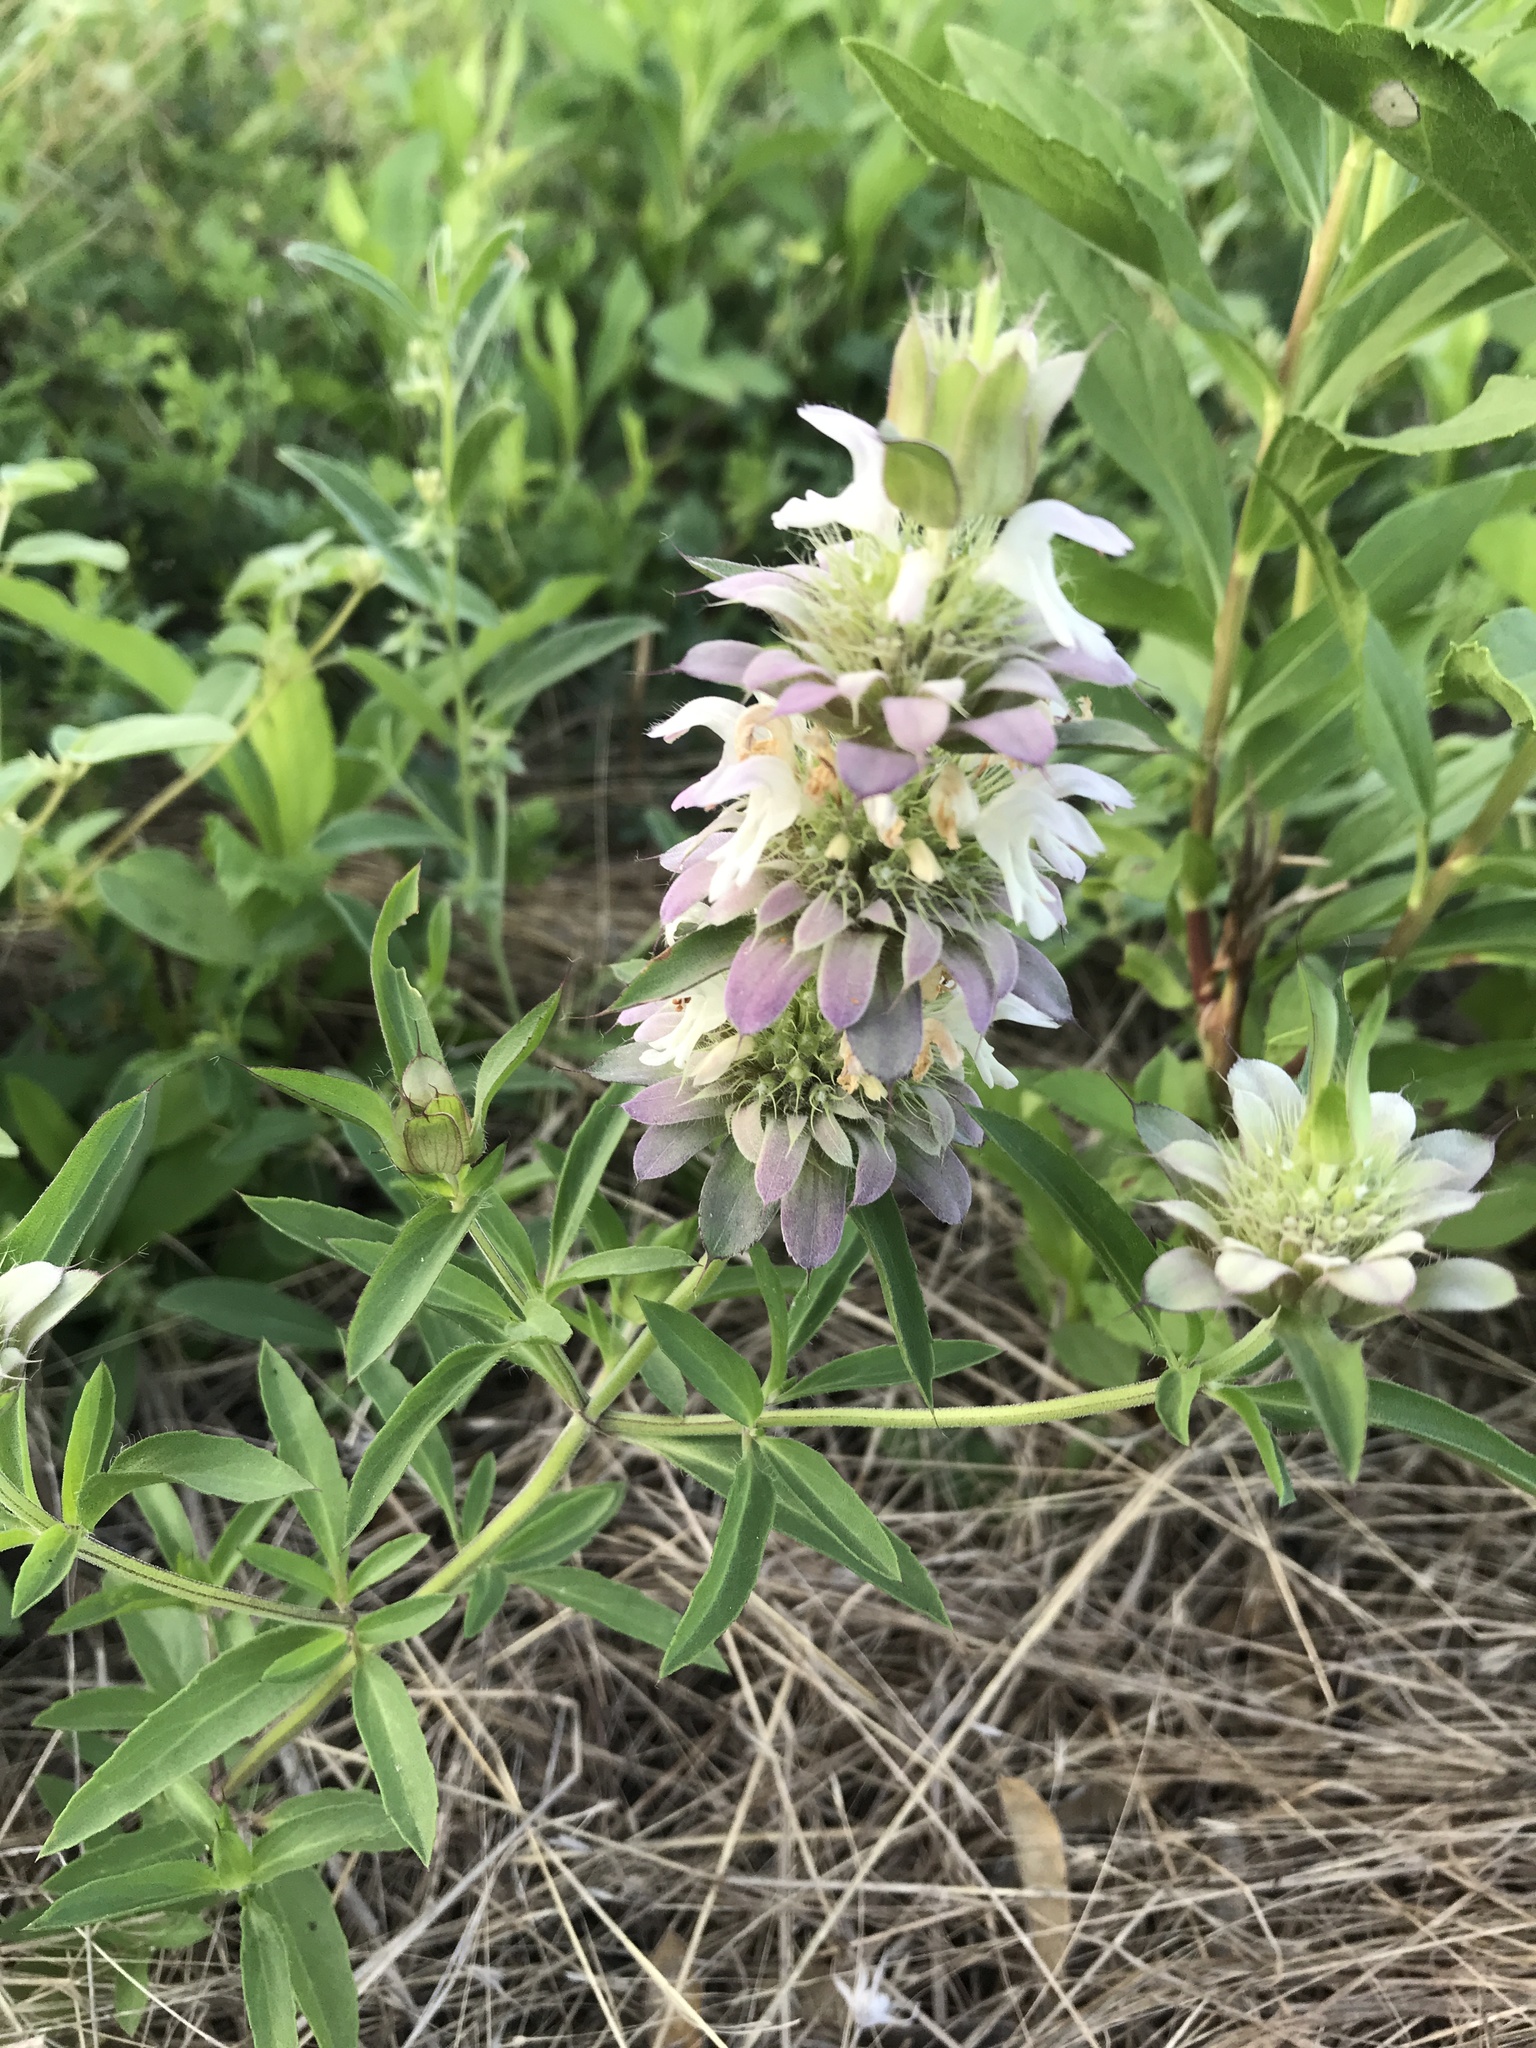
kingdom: Plantae
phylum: Tracheophyta
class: Magnoliopsida
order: Lamiales
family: Lamiaceae
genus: Monarda
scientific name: Monarda citriodora
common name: Lemon beebalm
